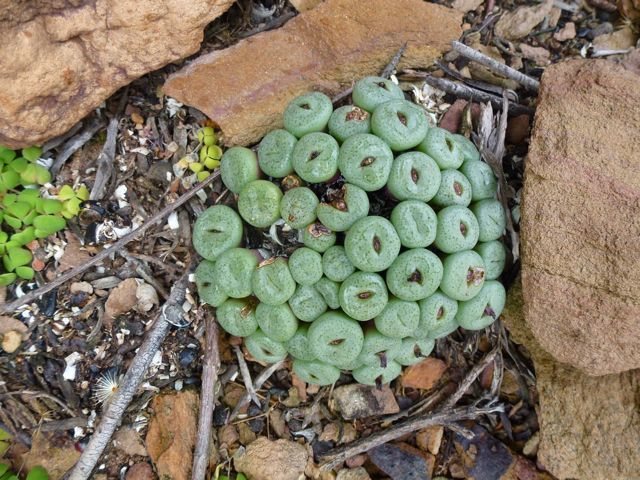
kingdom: Plantae
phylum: Tracheophyta
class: Magnoliopsida
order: Caryophyllales
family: Aizoaceae
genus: Conophytum
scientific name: Conophytum truncatum
